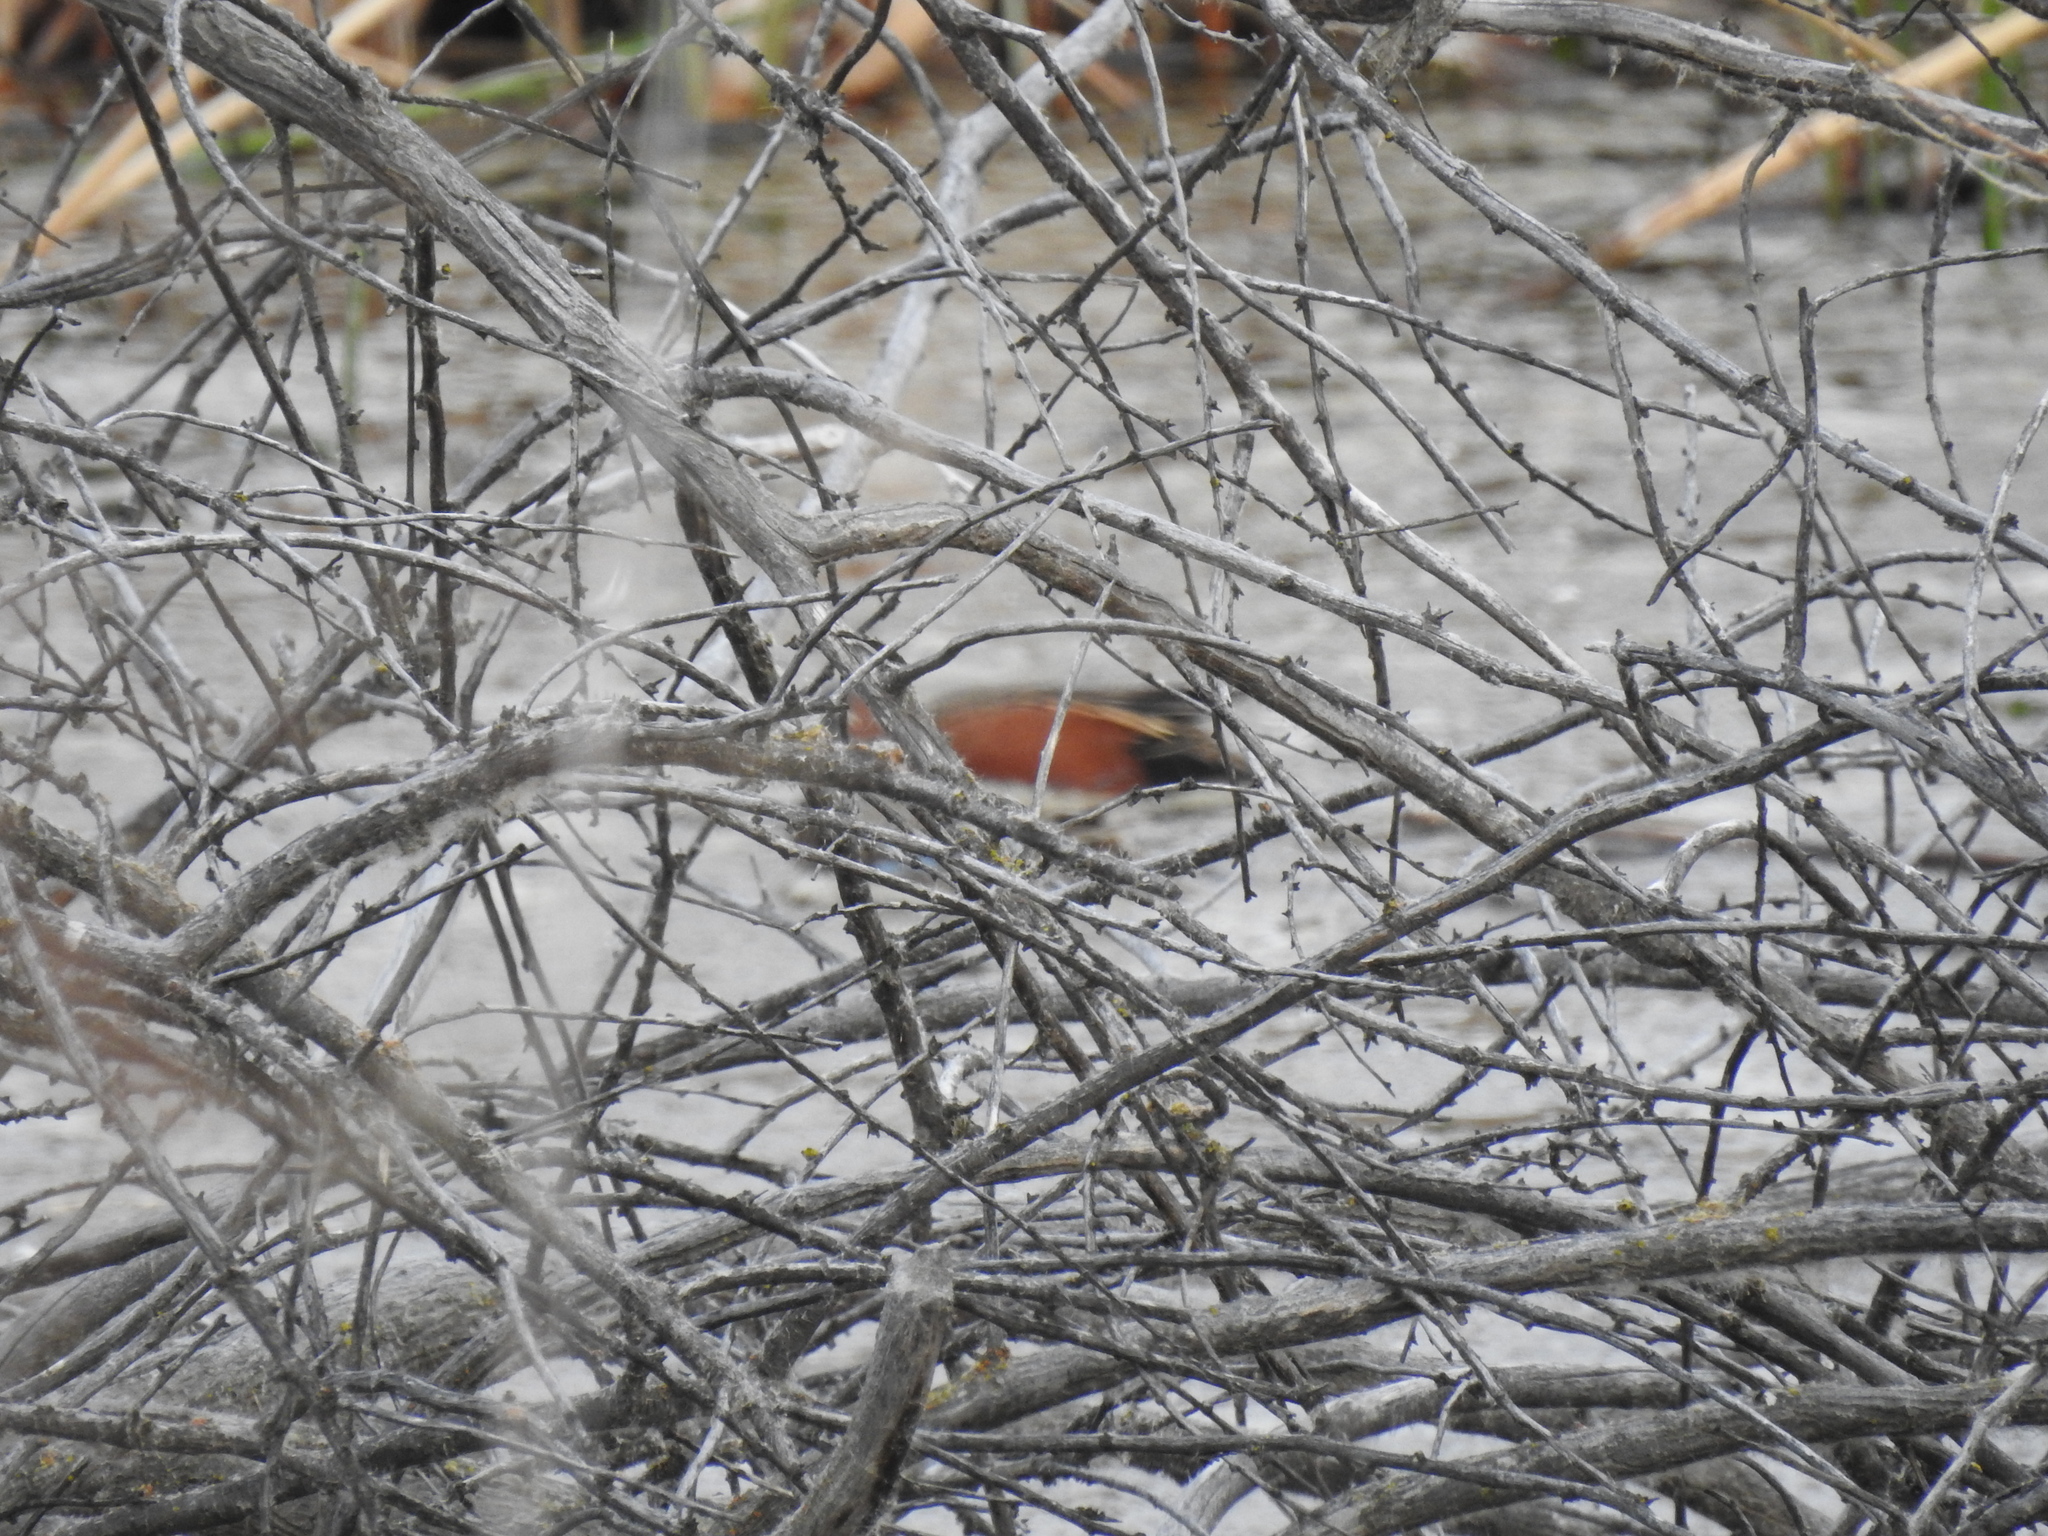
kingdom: Animalia
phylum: Chordata
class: Aves
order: Anseriformes
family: Anatidae
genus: Spatula
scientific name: Spatula cyanoptera
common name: Cinnamon teal
